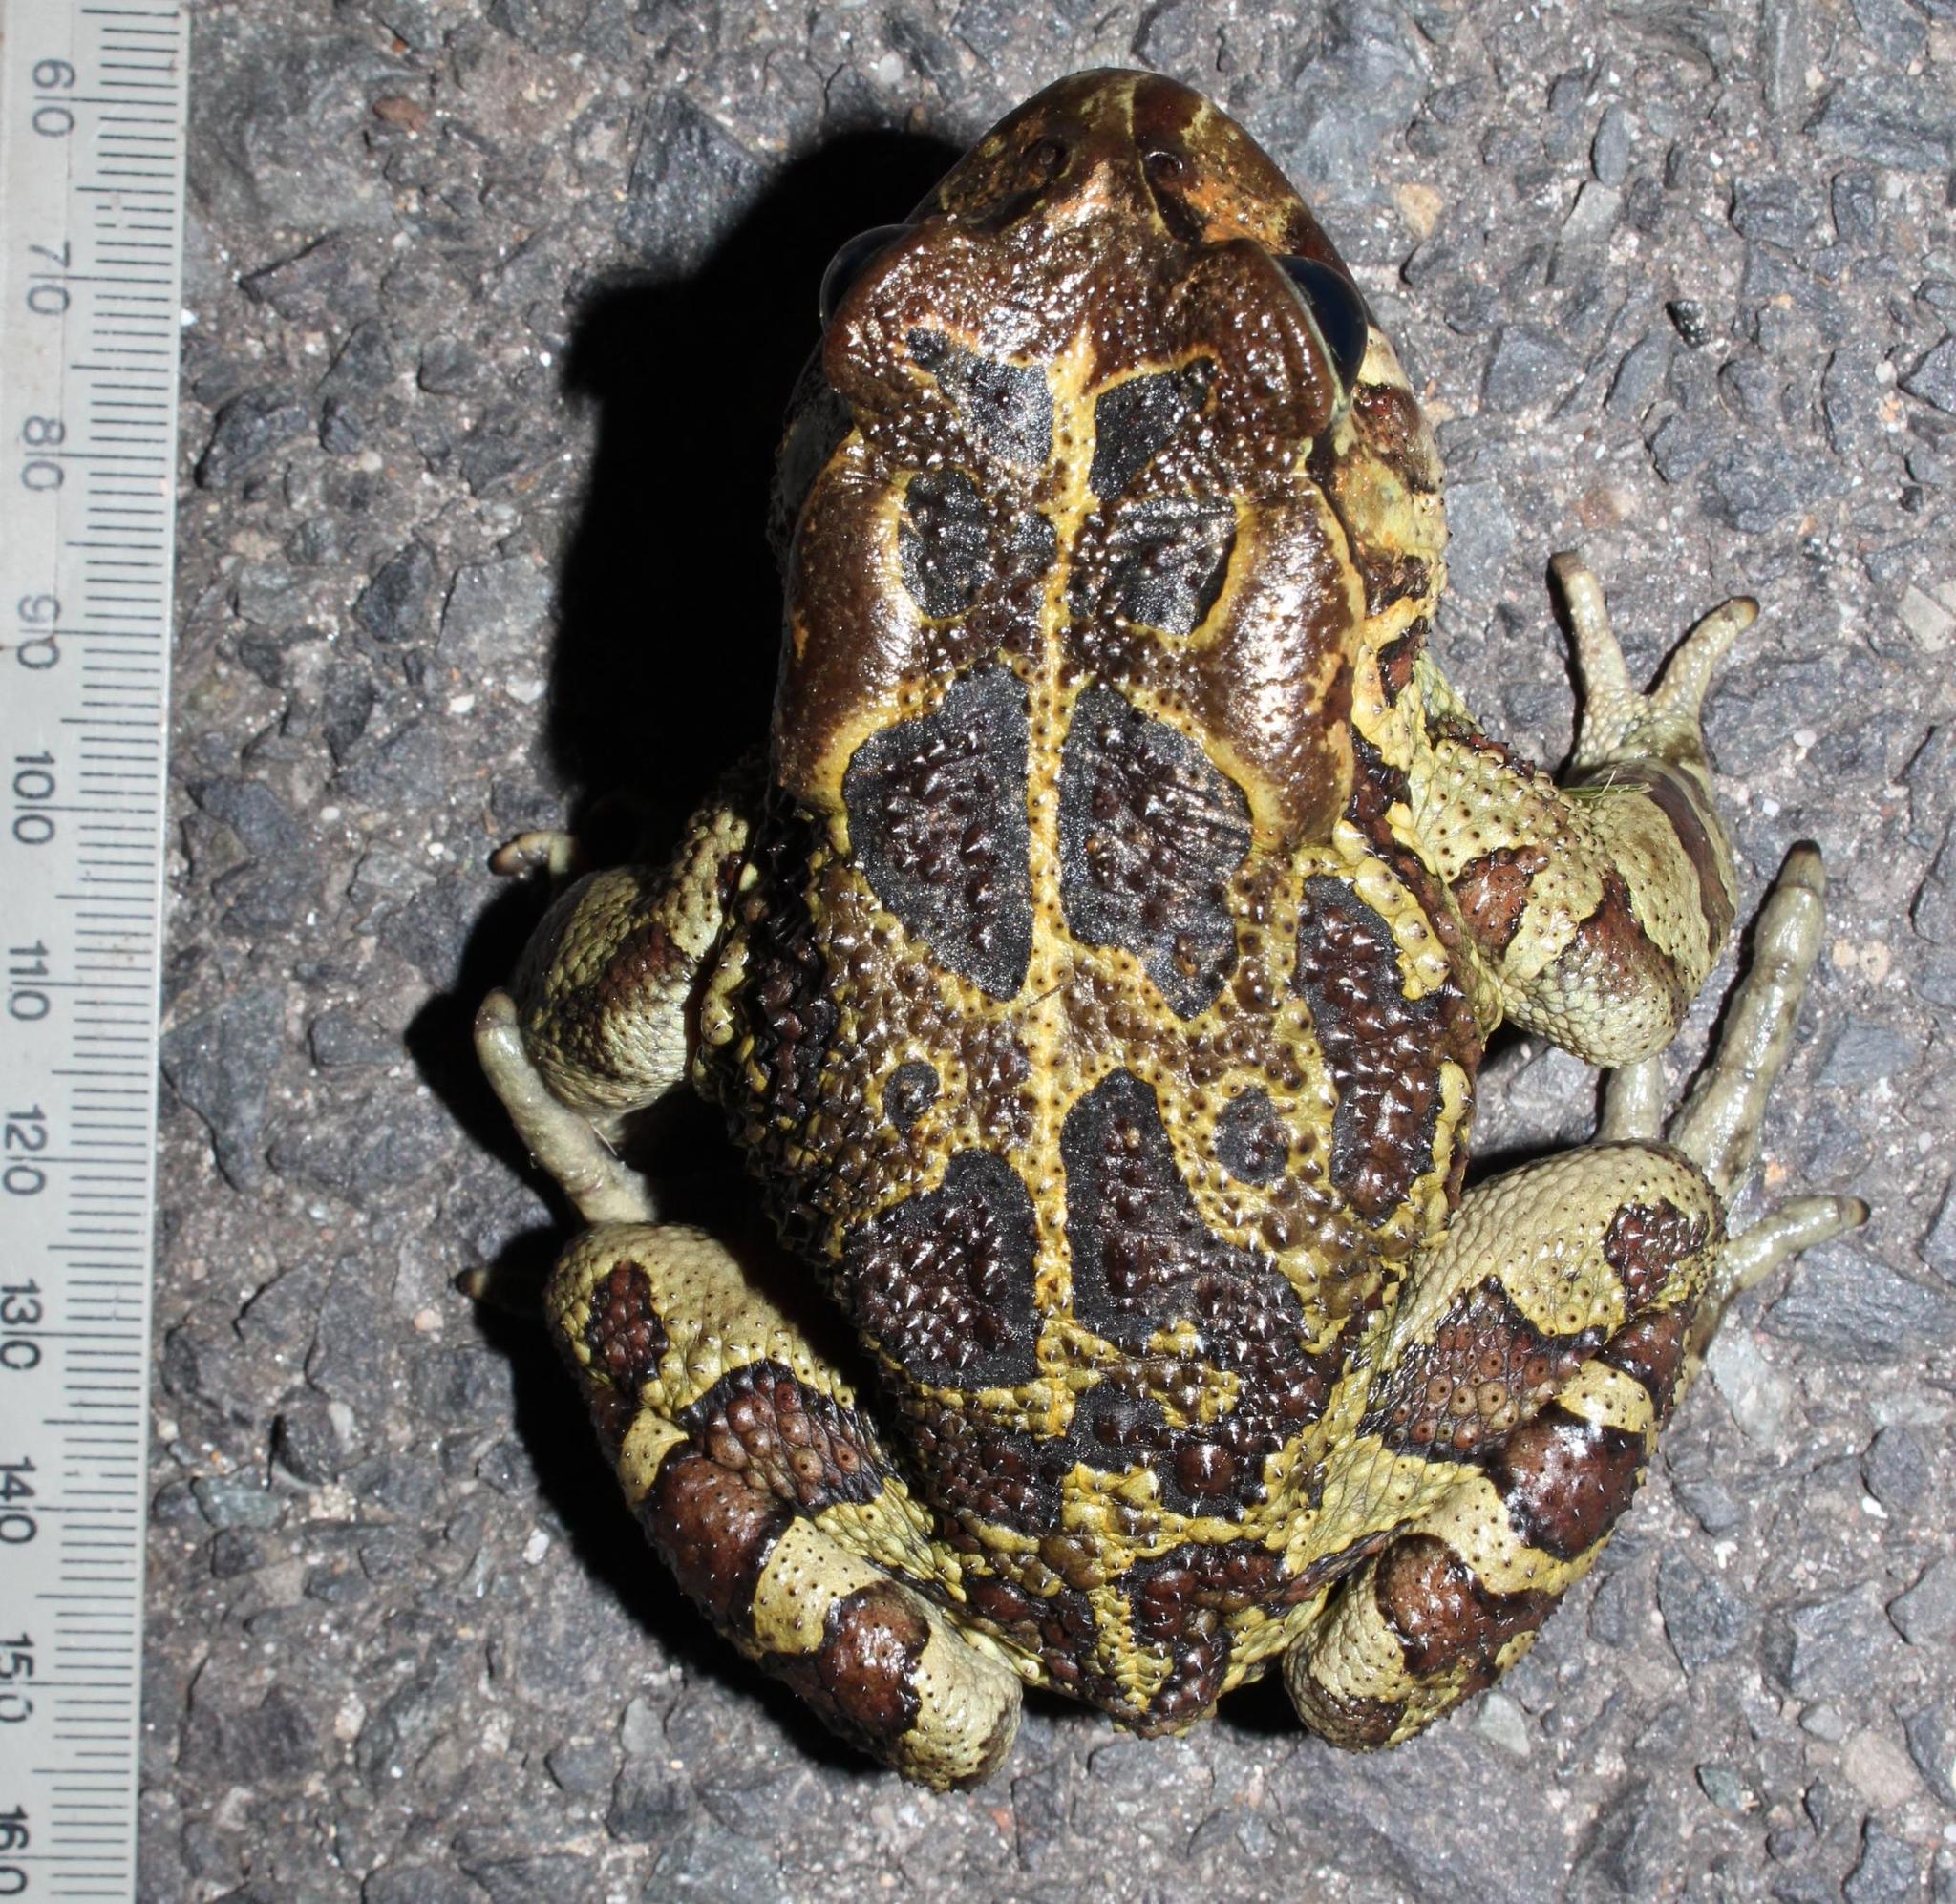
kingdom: Animalia
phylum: Chordata
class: Amphibia
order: Anura
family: Bufonidae
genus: Sclerophrys
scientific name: Sclerophrys pantherina
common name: Panther toad
